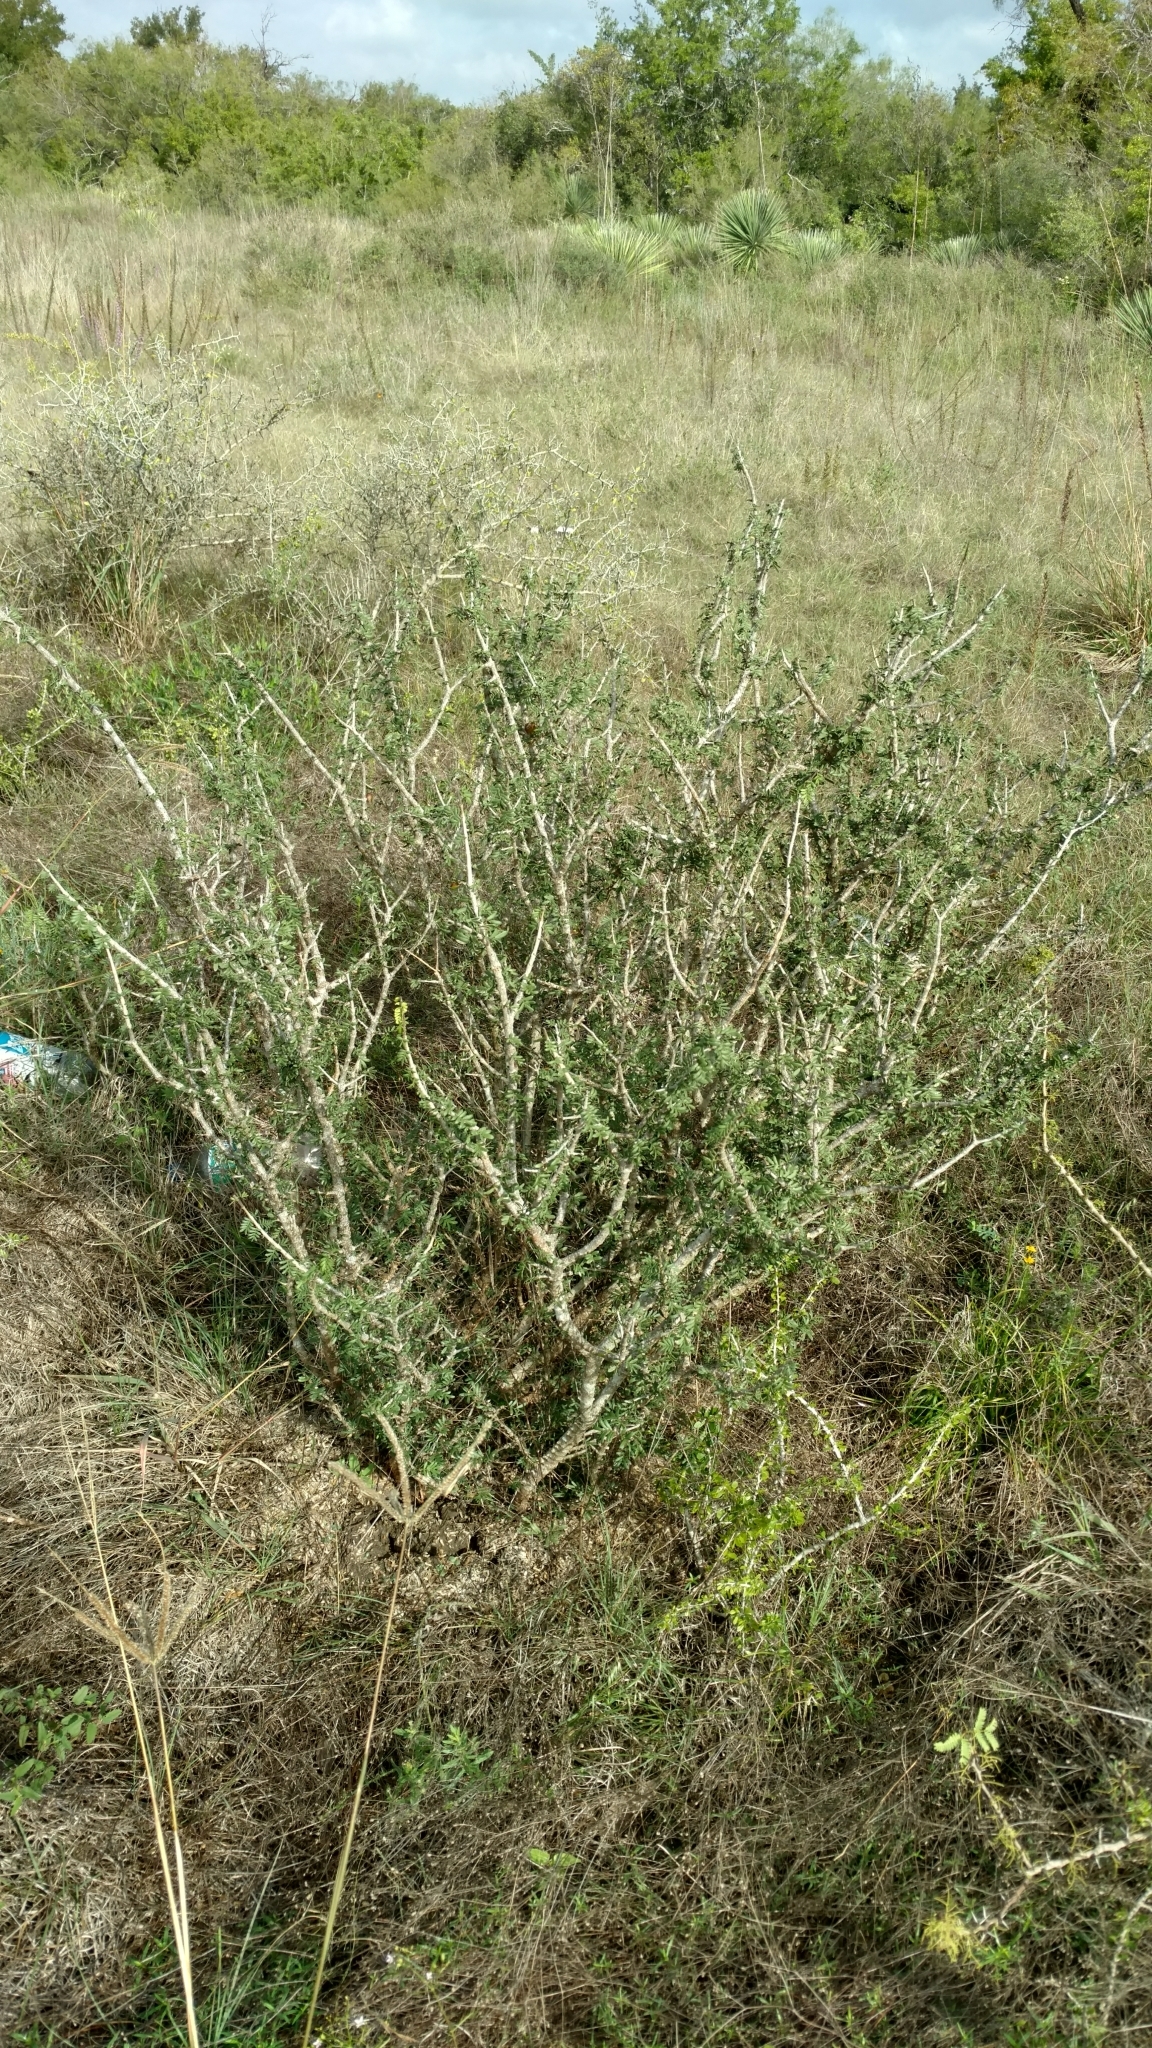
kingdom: Plantae
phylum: Tracheophyta
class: Magnoliopsida
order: Zygophyllales
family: Zygophyllaceae
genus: Porlieria
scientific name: Porlieria angustifolia
